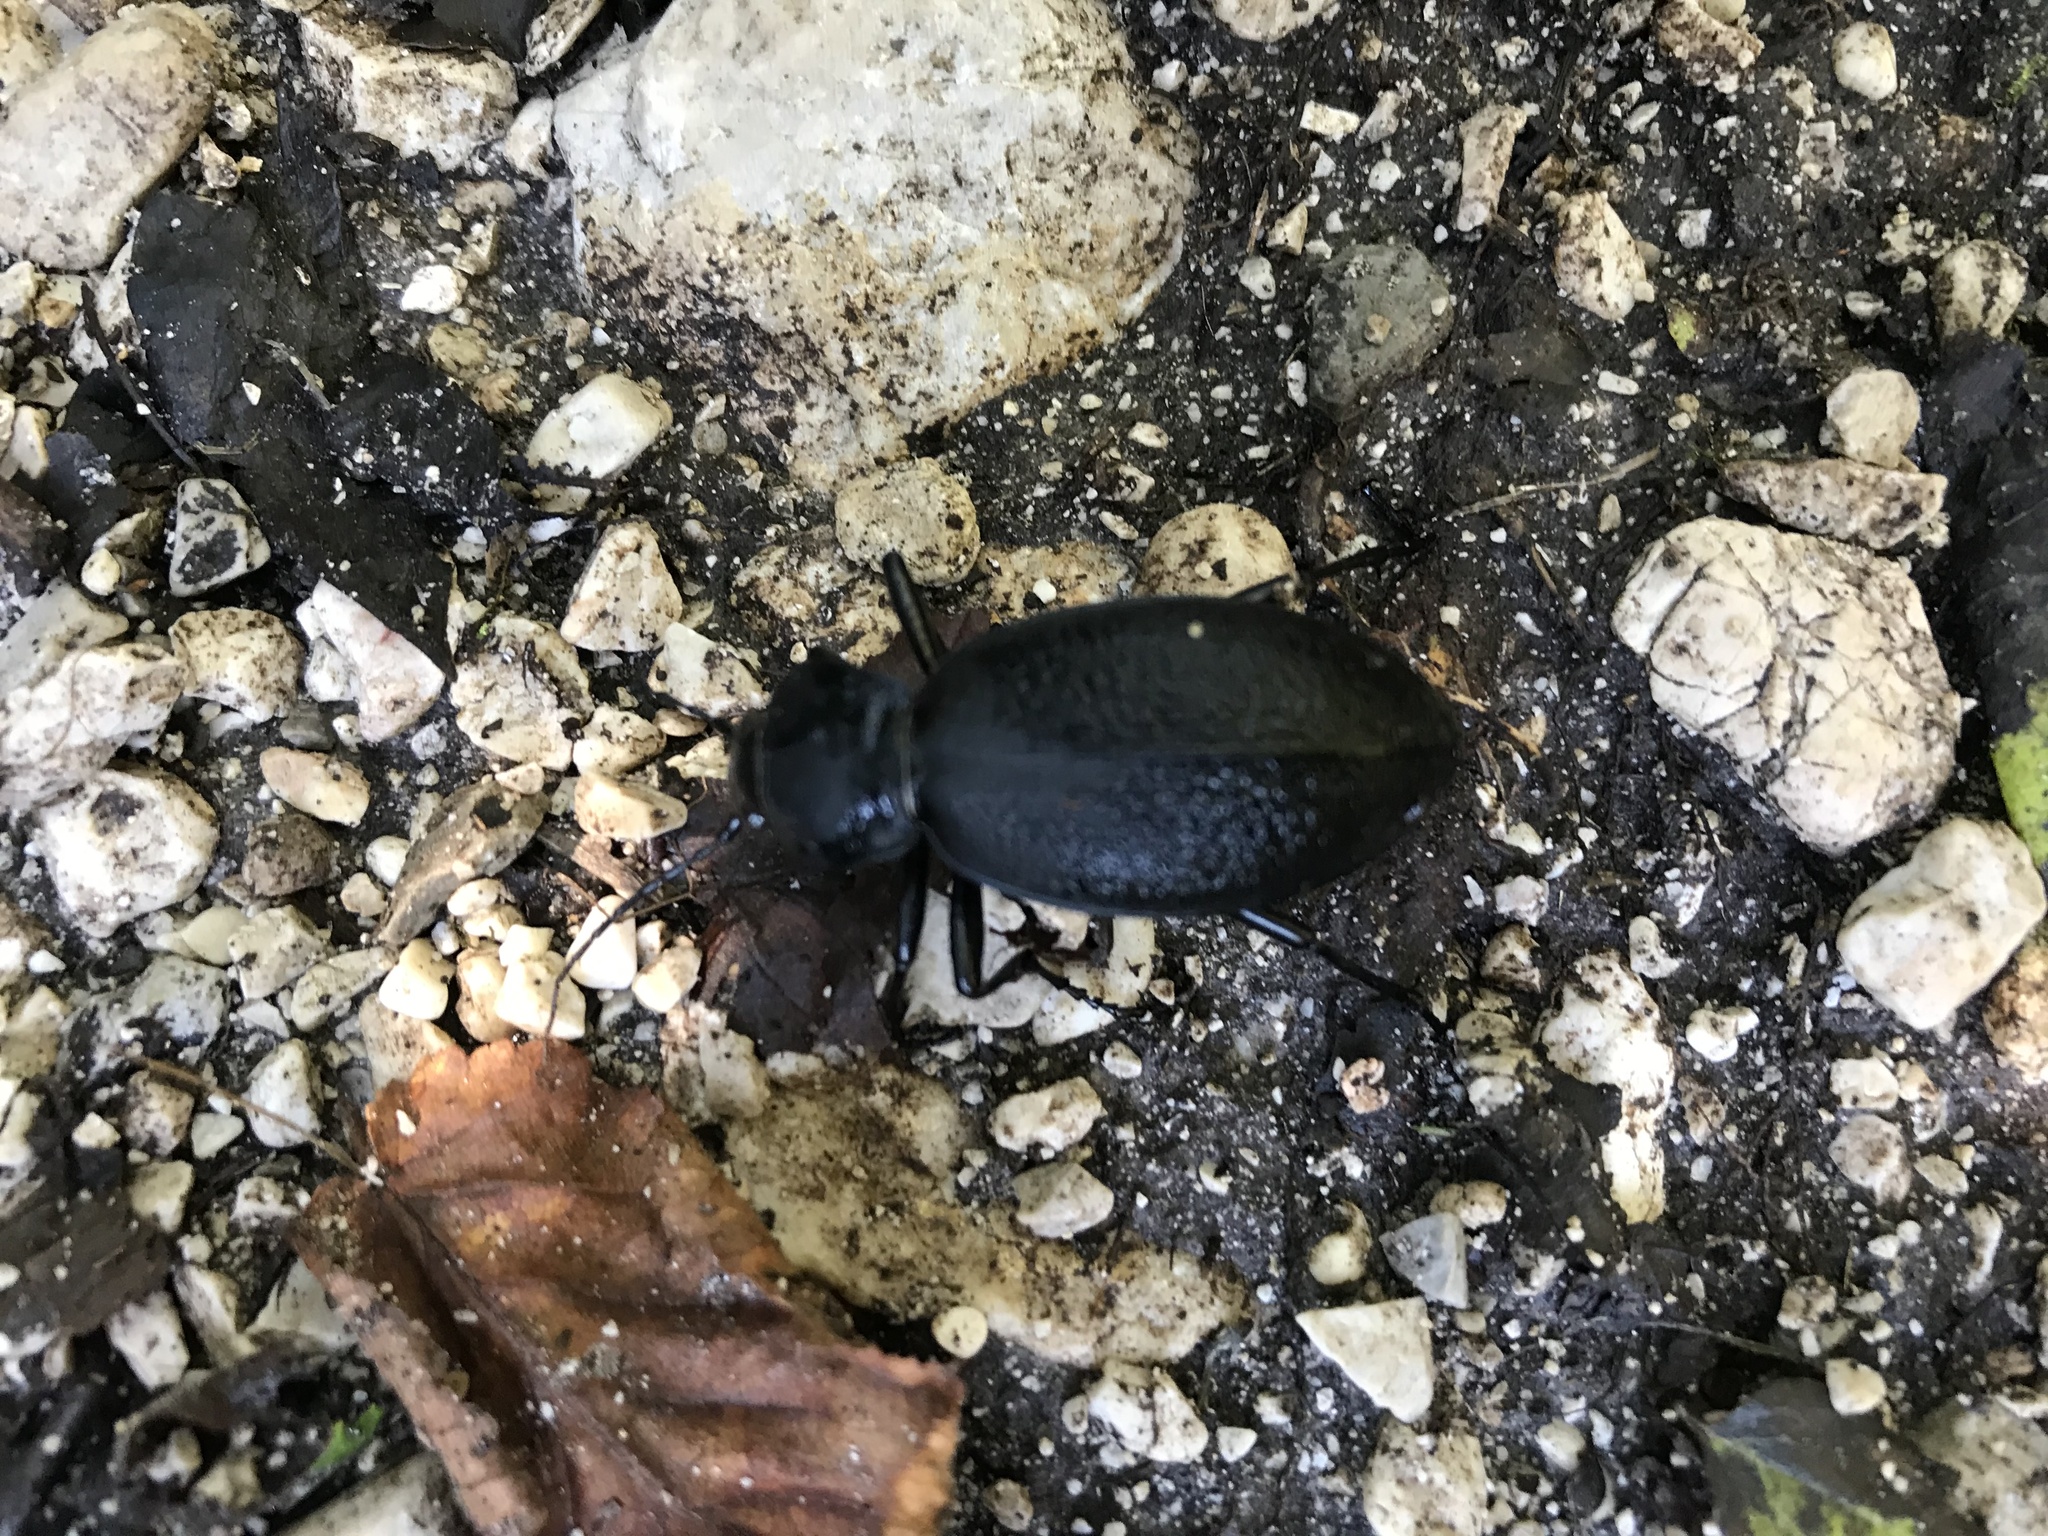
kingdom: Animalia
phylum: Arthropoda
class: Insecta
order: Coleoptera
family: Carabidae
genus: Carabus
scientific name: Carabus coriaceus
